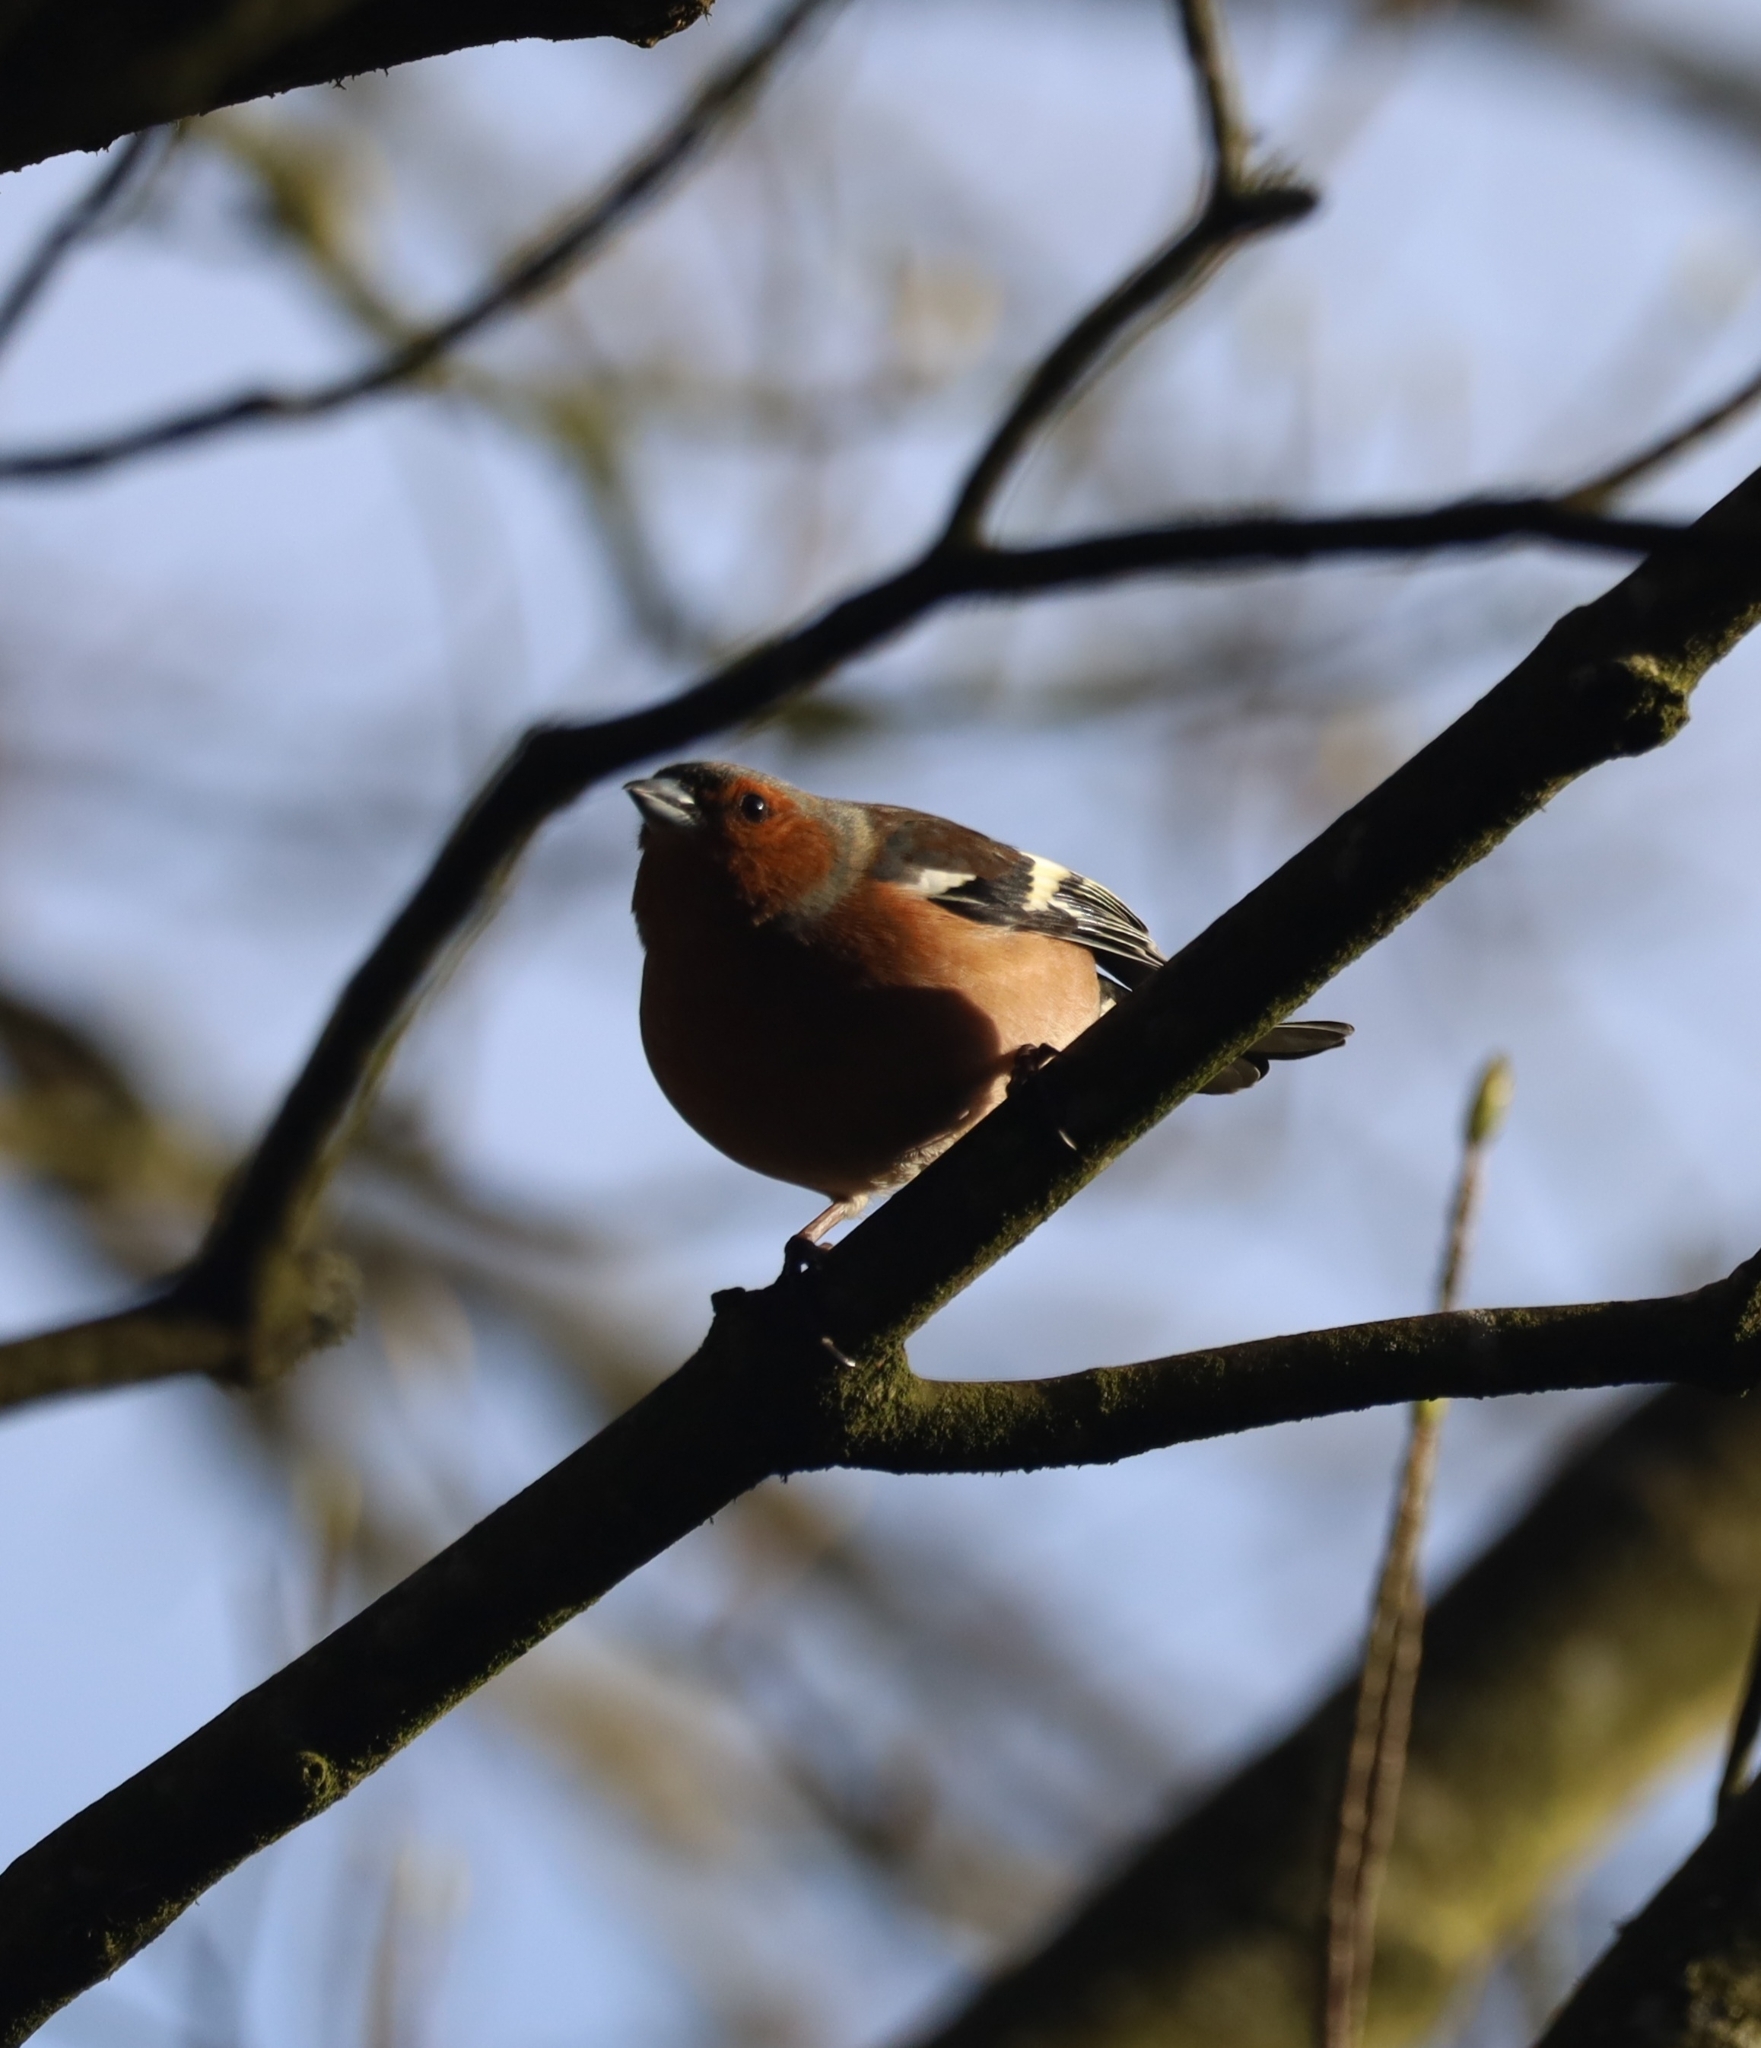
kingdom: Animalia
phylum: Chordata
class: Aves
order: Passeriformes
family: Fringillidae
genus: Fringilla
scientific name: Fringilla coelebs
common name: Common chaffinch
